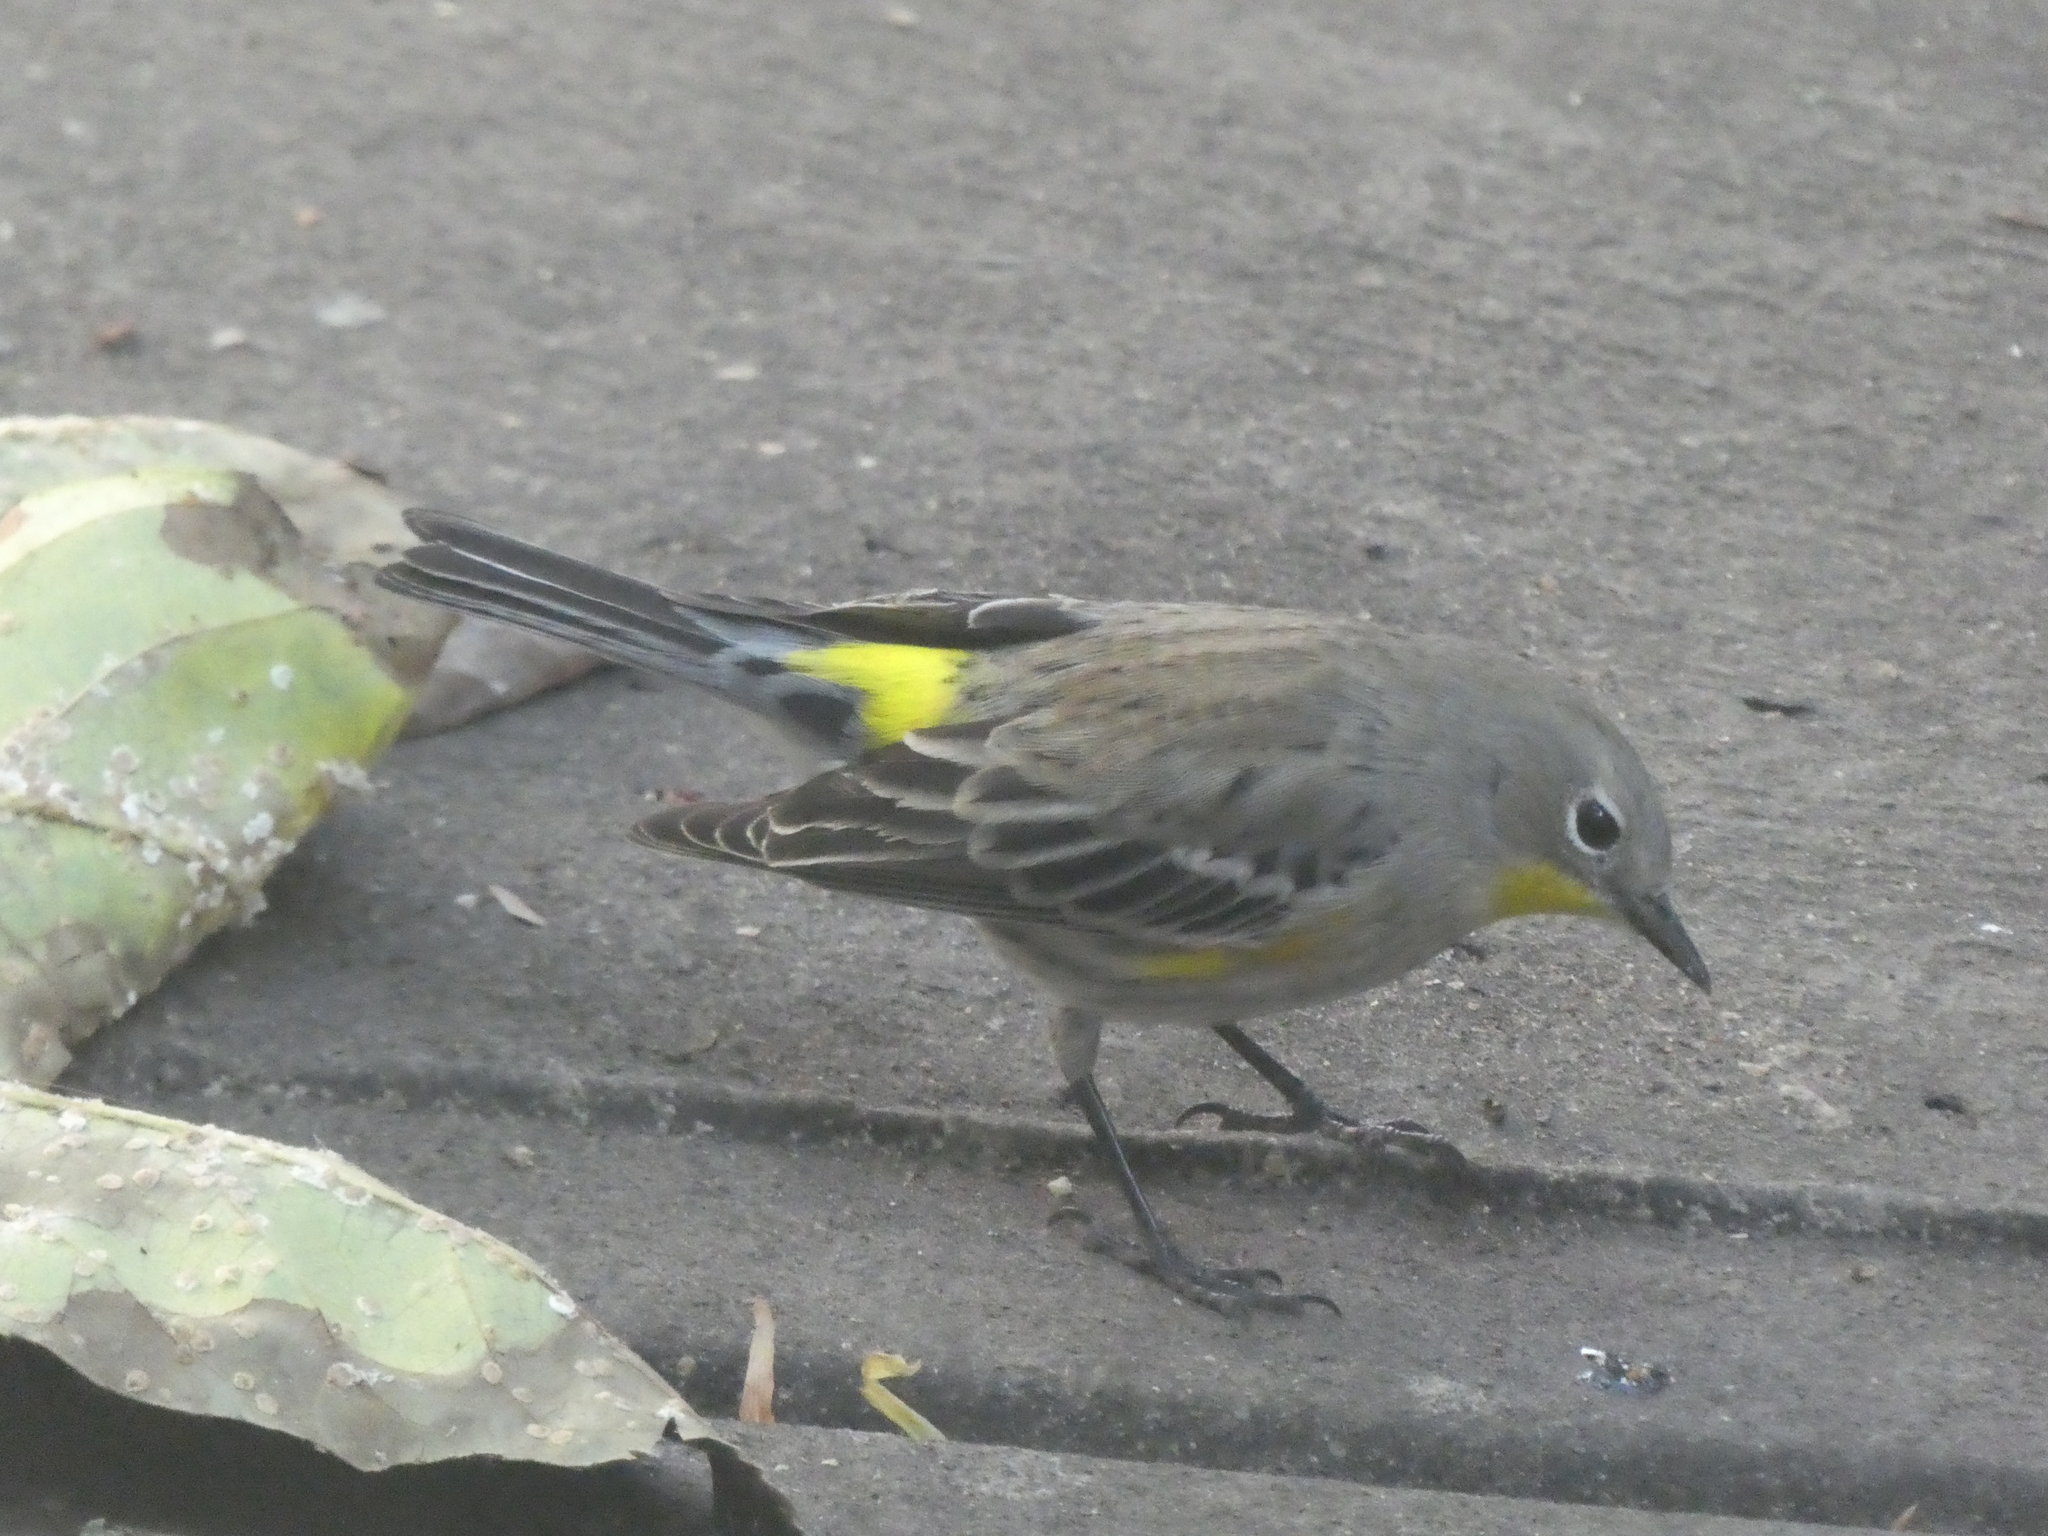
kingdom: Animalia
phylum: Chordata
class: Aves
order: Passeriformes
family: Parulidae
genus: Setophaga
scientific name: Setophaga coronata
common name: Myrtle warbler
